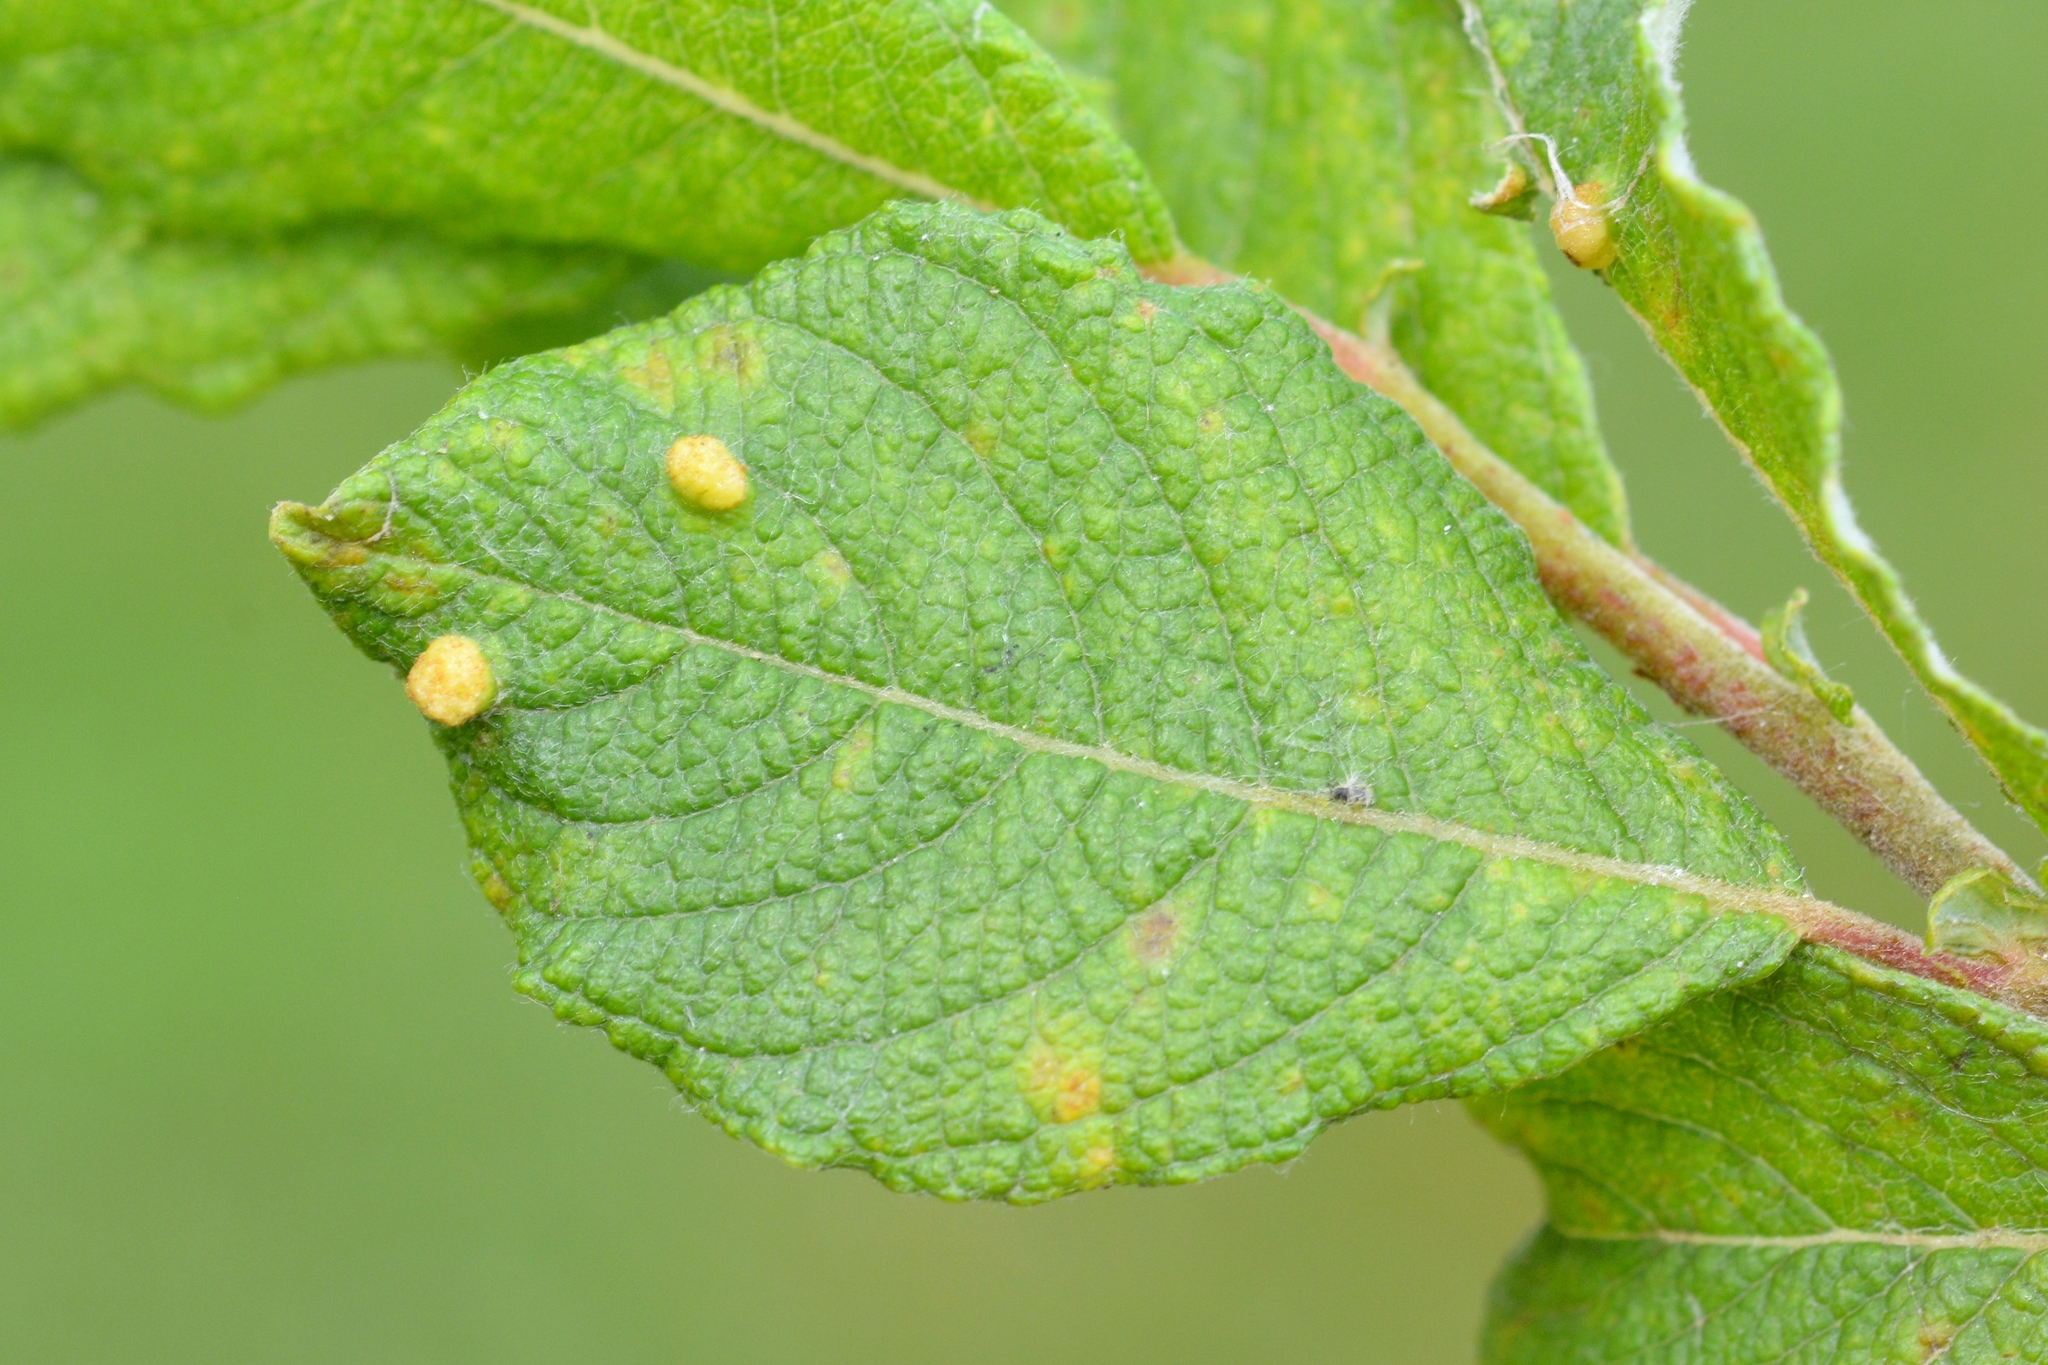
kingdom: Animalia
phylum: Arthropoda
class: Arachnida
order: Trombidiformes
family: Eriophyidae
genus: Aculus
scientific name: Aculus laevis
